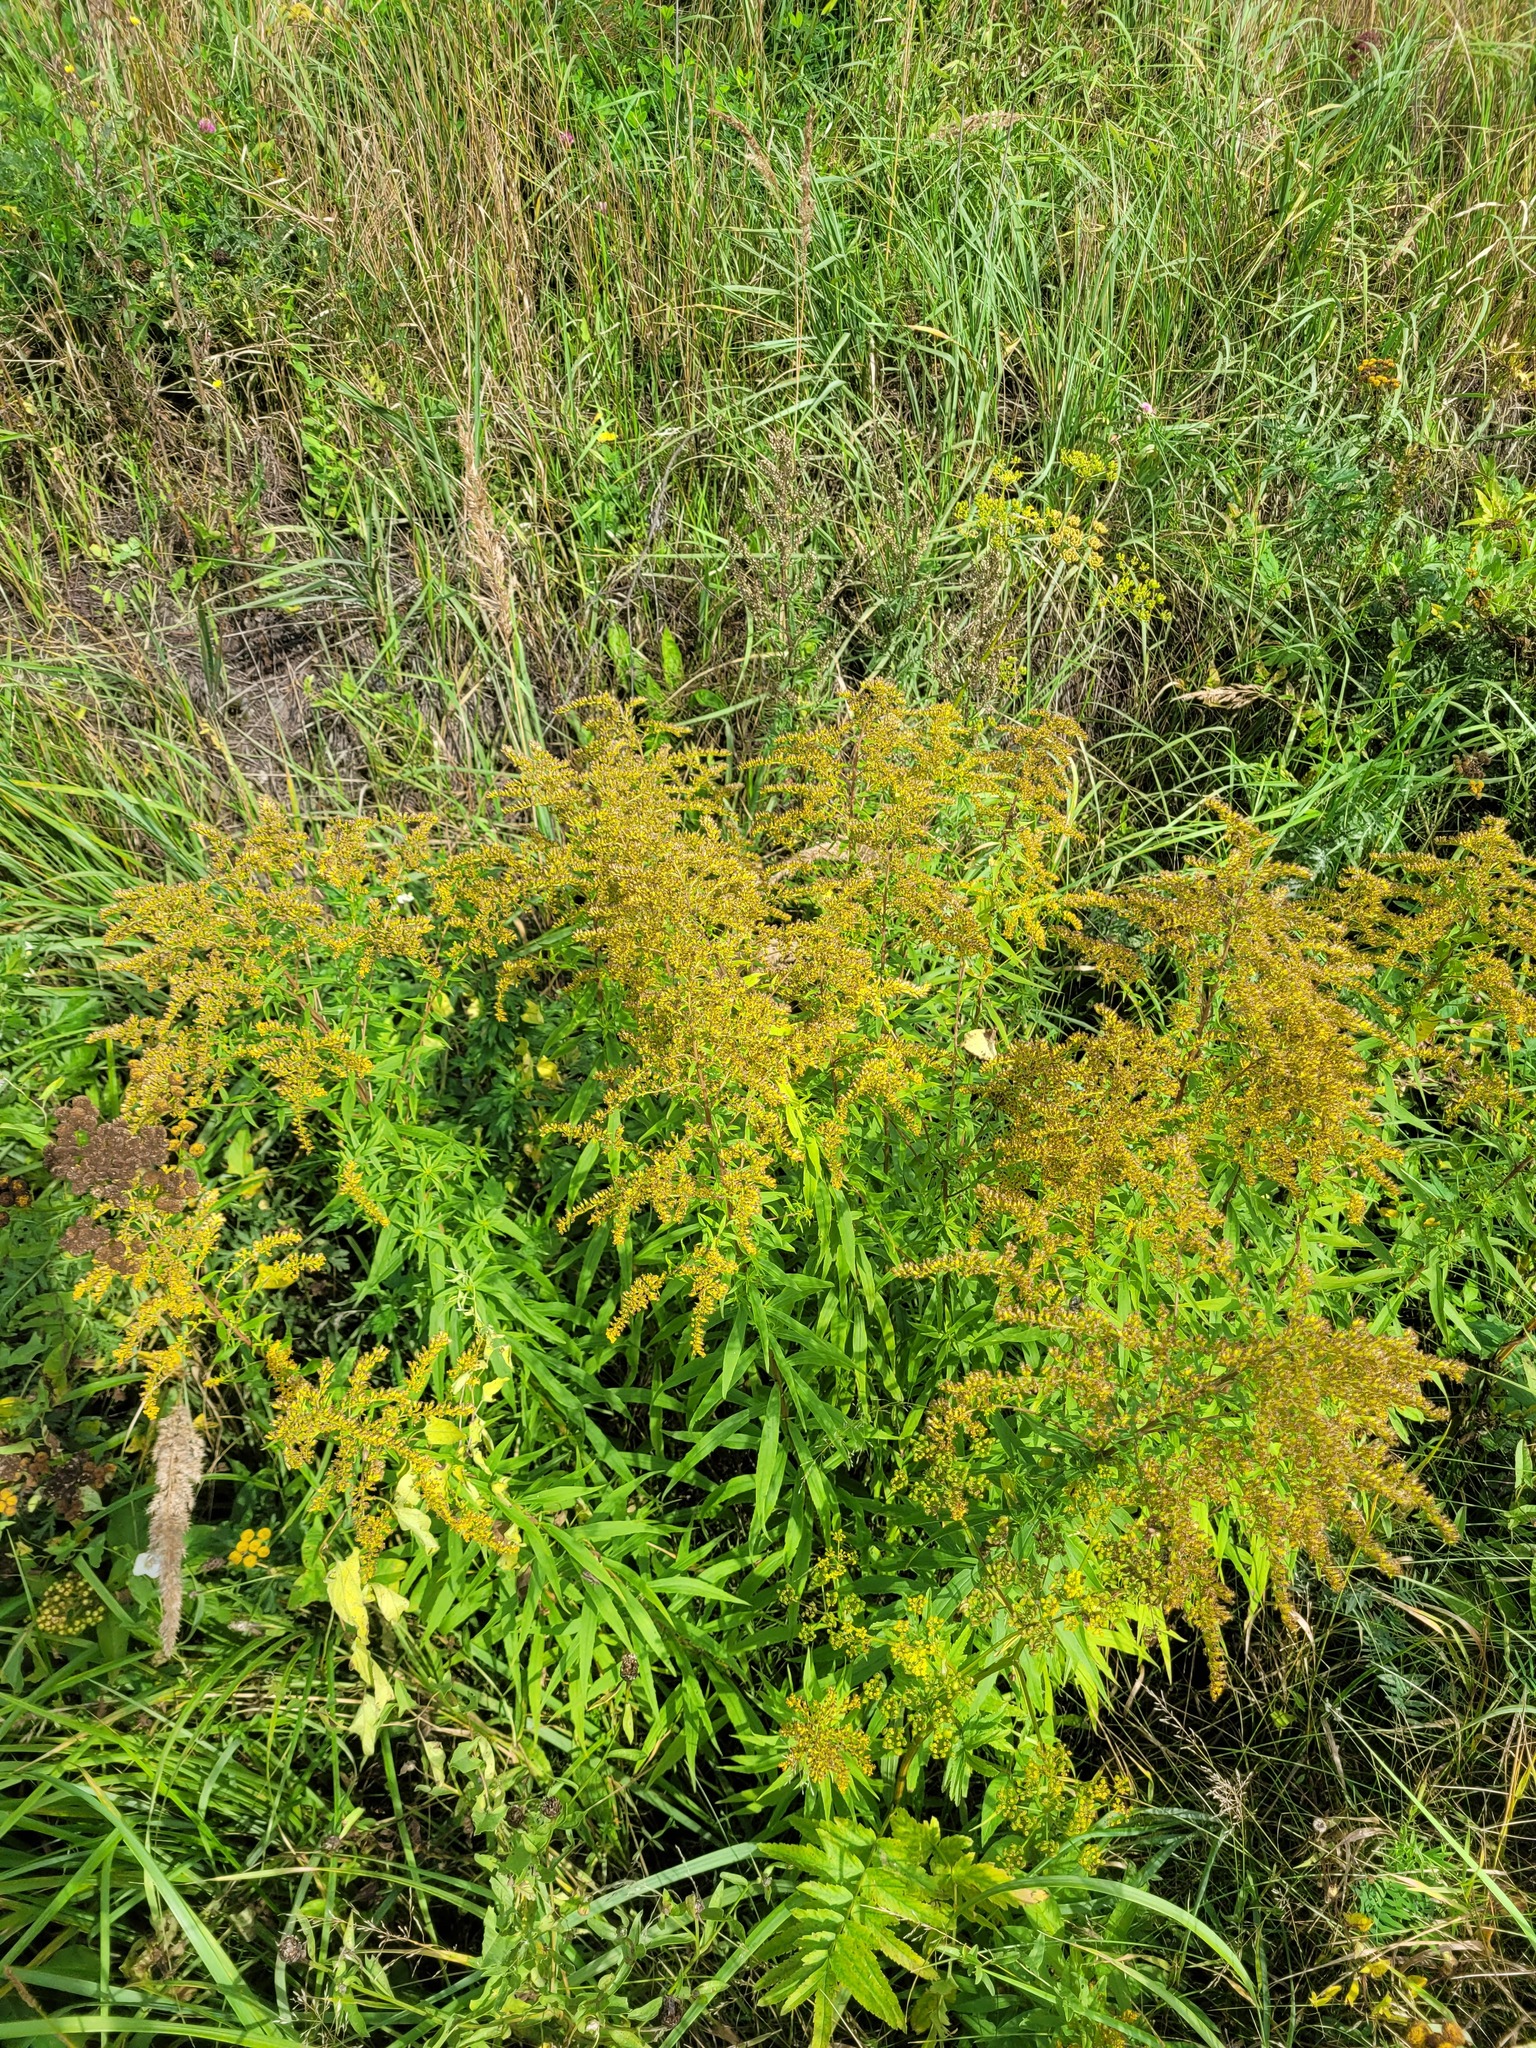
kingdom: Plantae
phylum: Tracheophyta
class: Magnoliopsida
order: Asterales
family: Asteraceae
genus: Solidago
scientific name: Solidago canadensis
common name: Canada goldenrod
